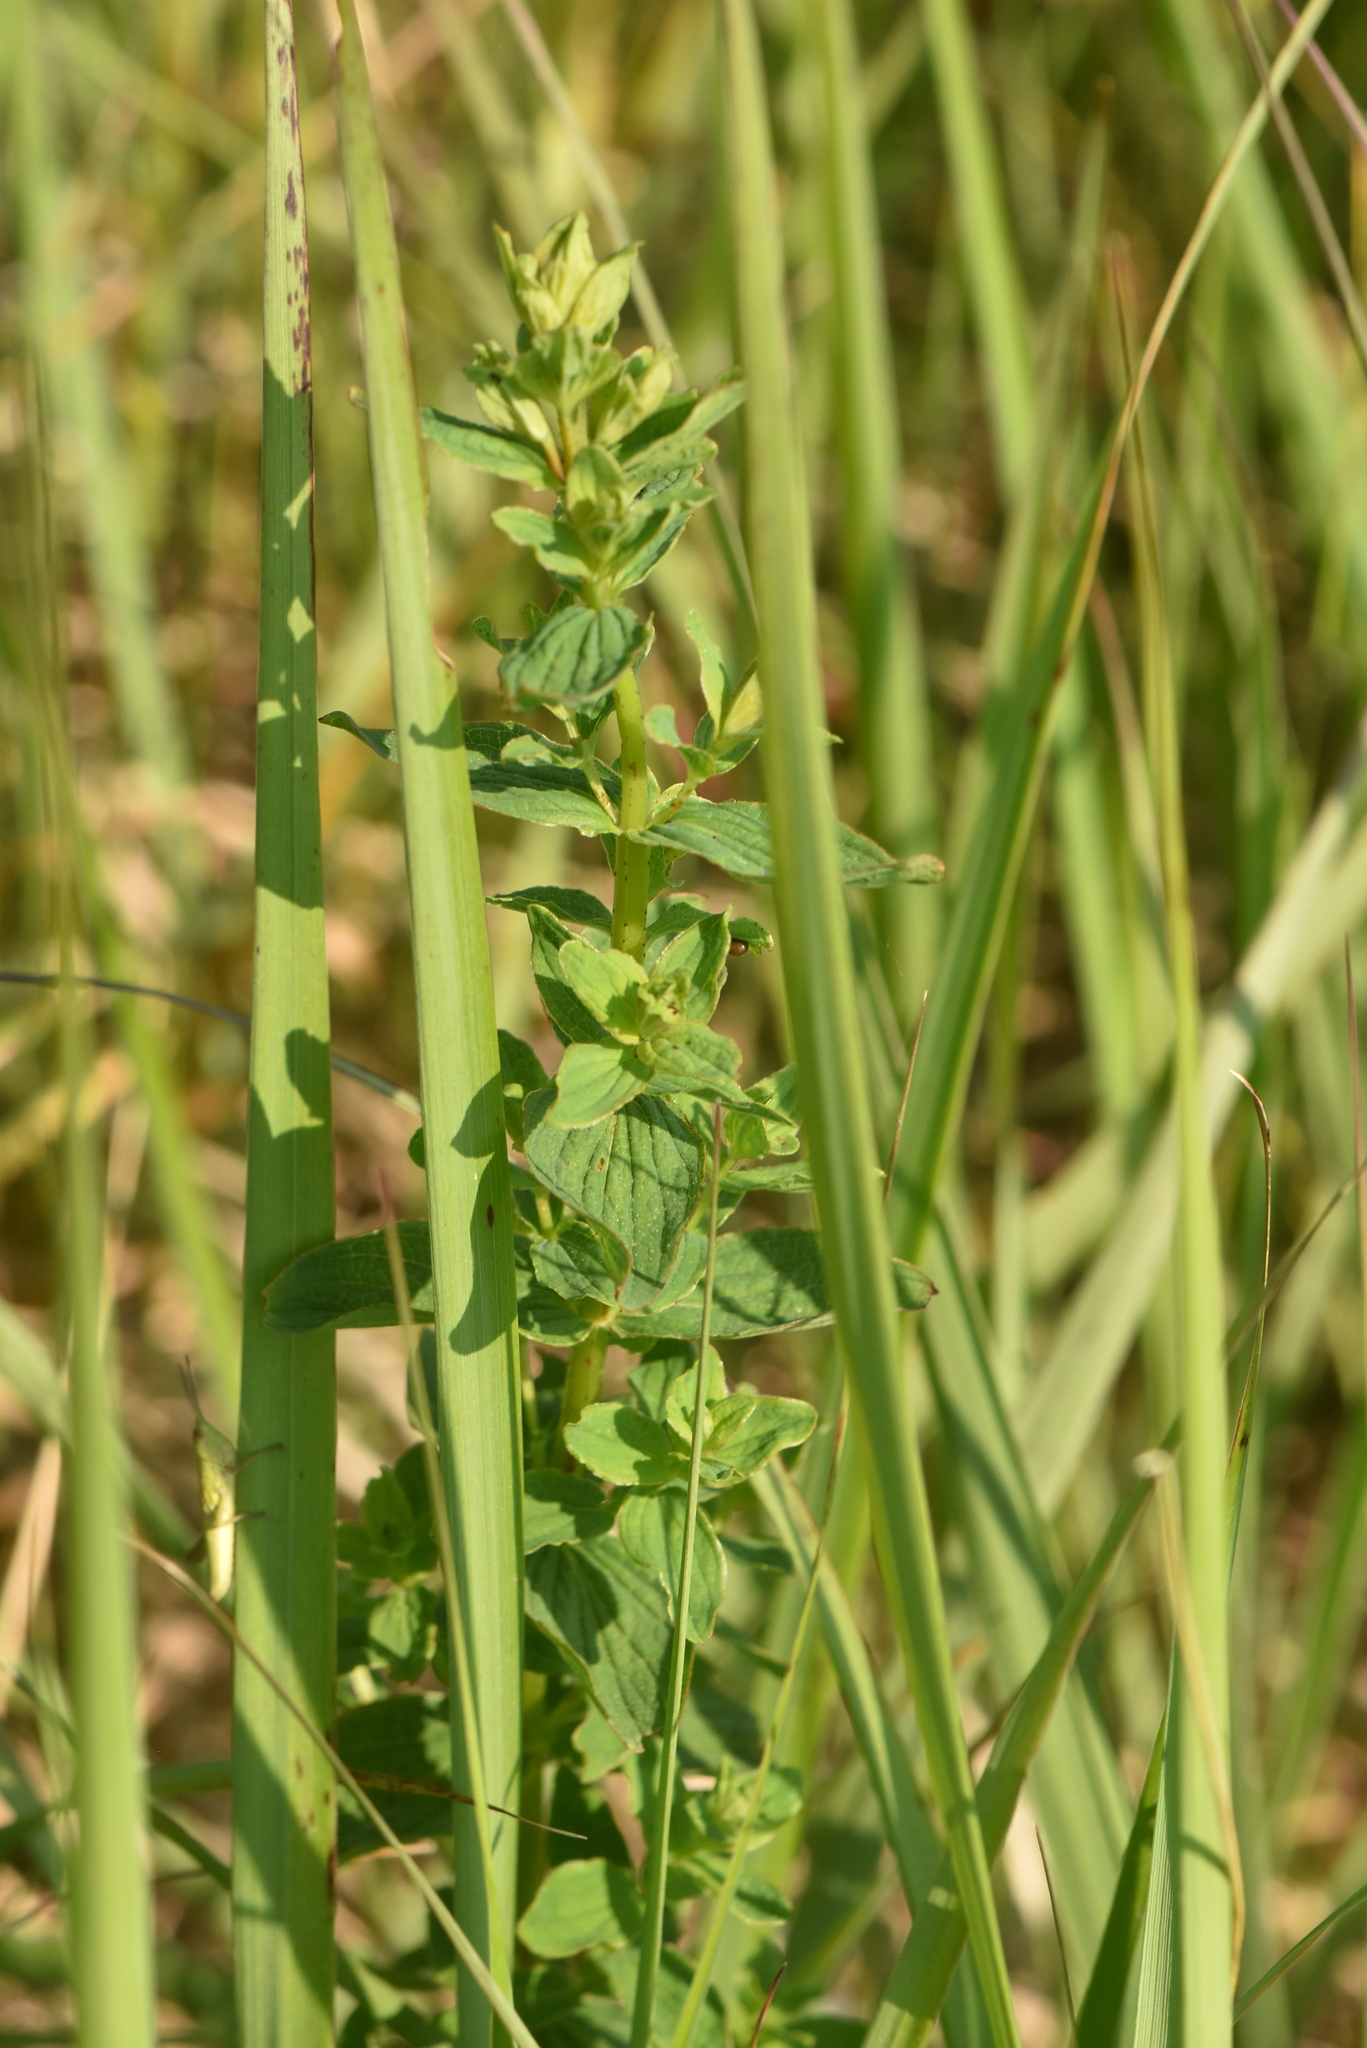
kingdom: Plantae
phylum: Tracheophyta
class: Magnoliopsida
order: Malpighiales
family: Hypericaceae
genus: Hypericum
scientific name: Hypericum maculatum
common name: Imperforate st. john's-wort
